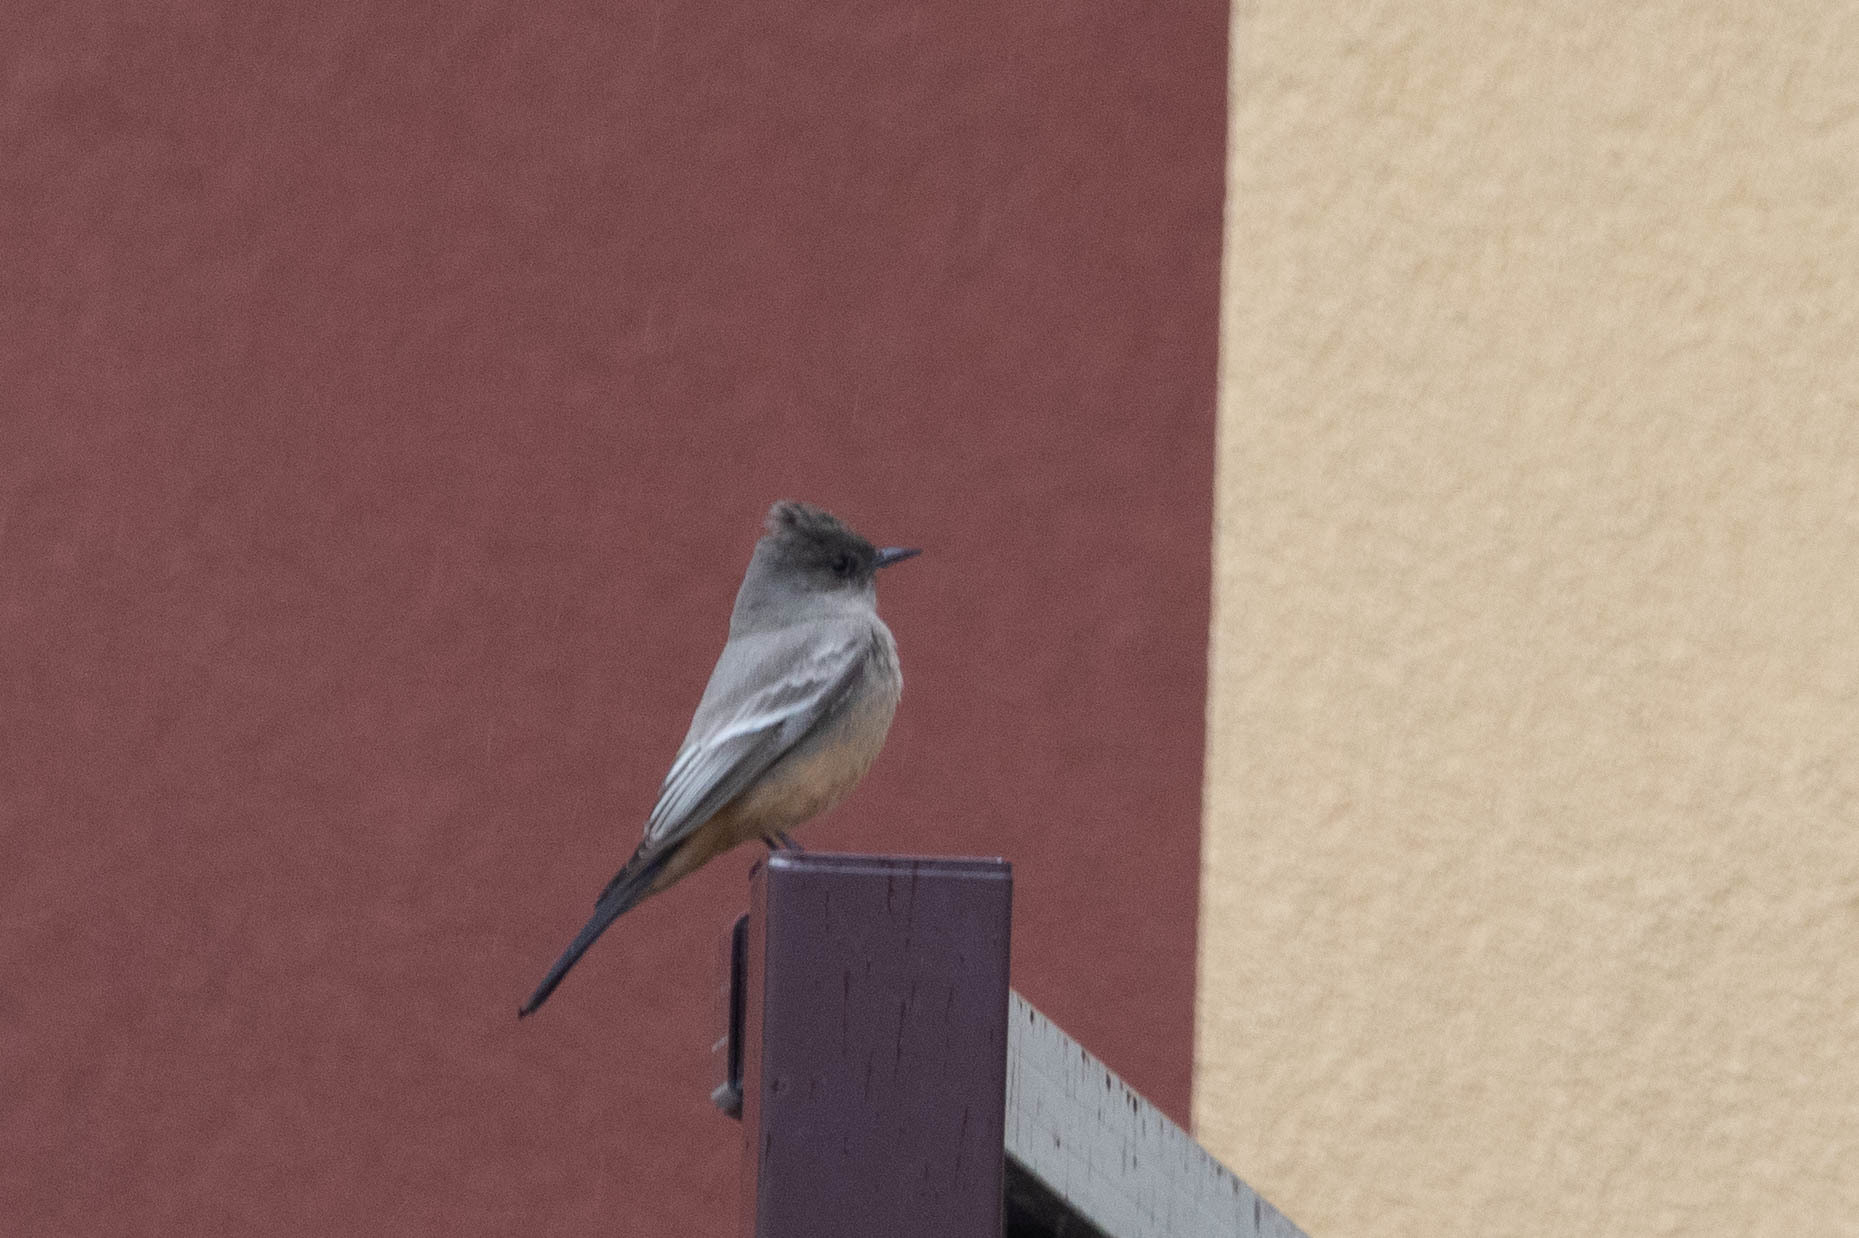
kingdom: Animalia
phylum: Chordata
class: Aves
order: Passeriformes
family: Tyrannidae
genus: Sayornis
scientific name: Sayornis saya
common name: Say's phoebe
